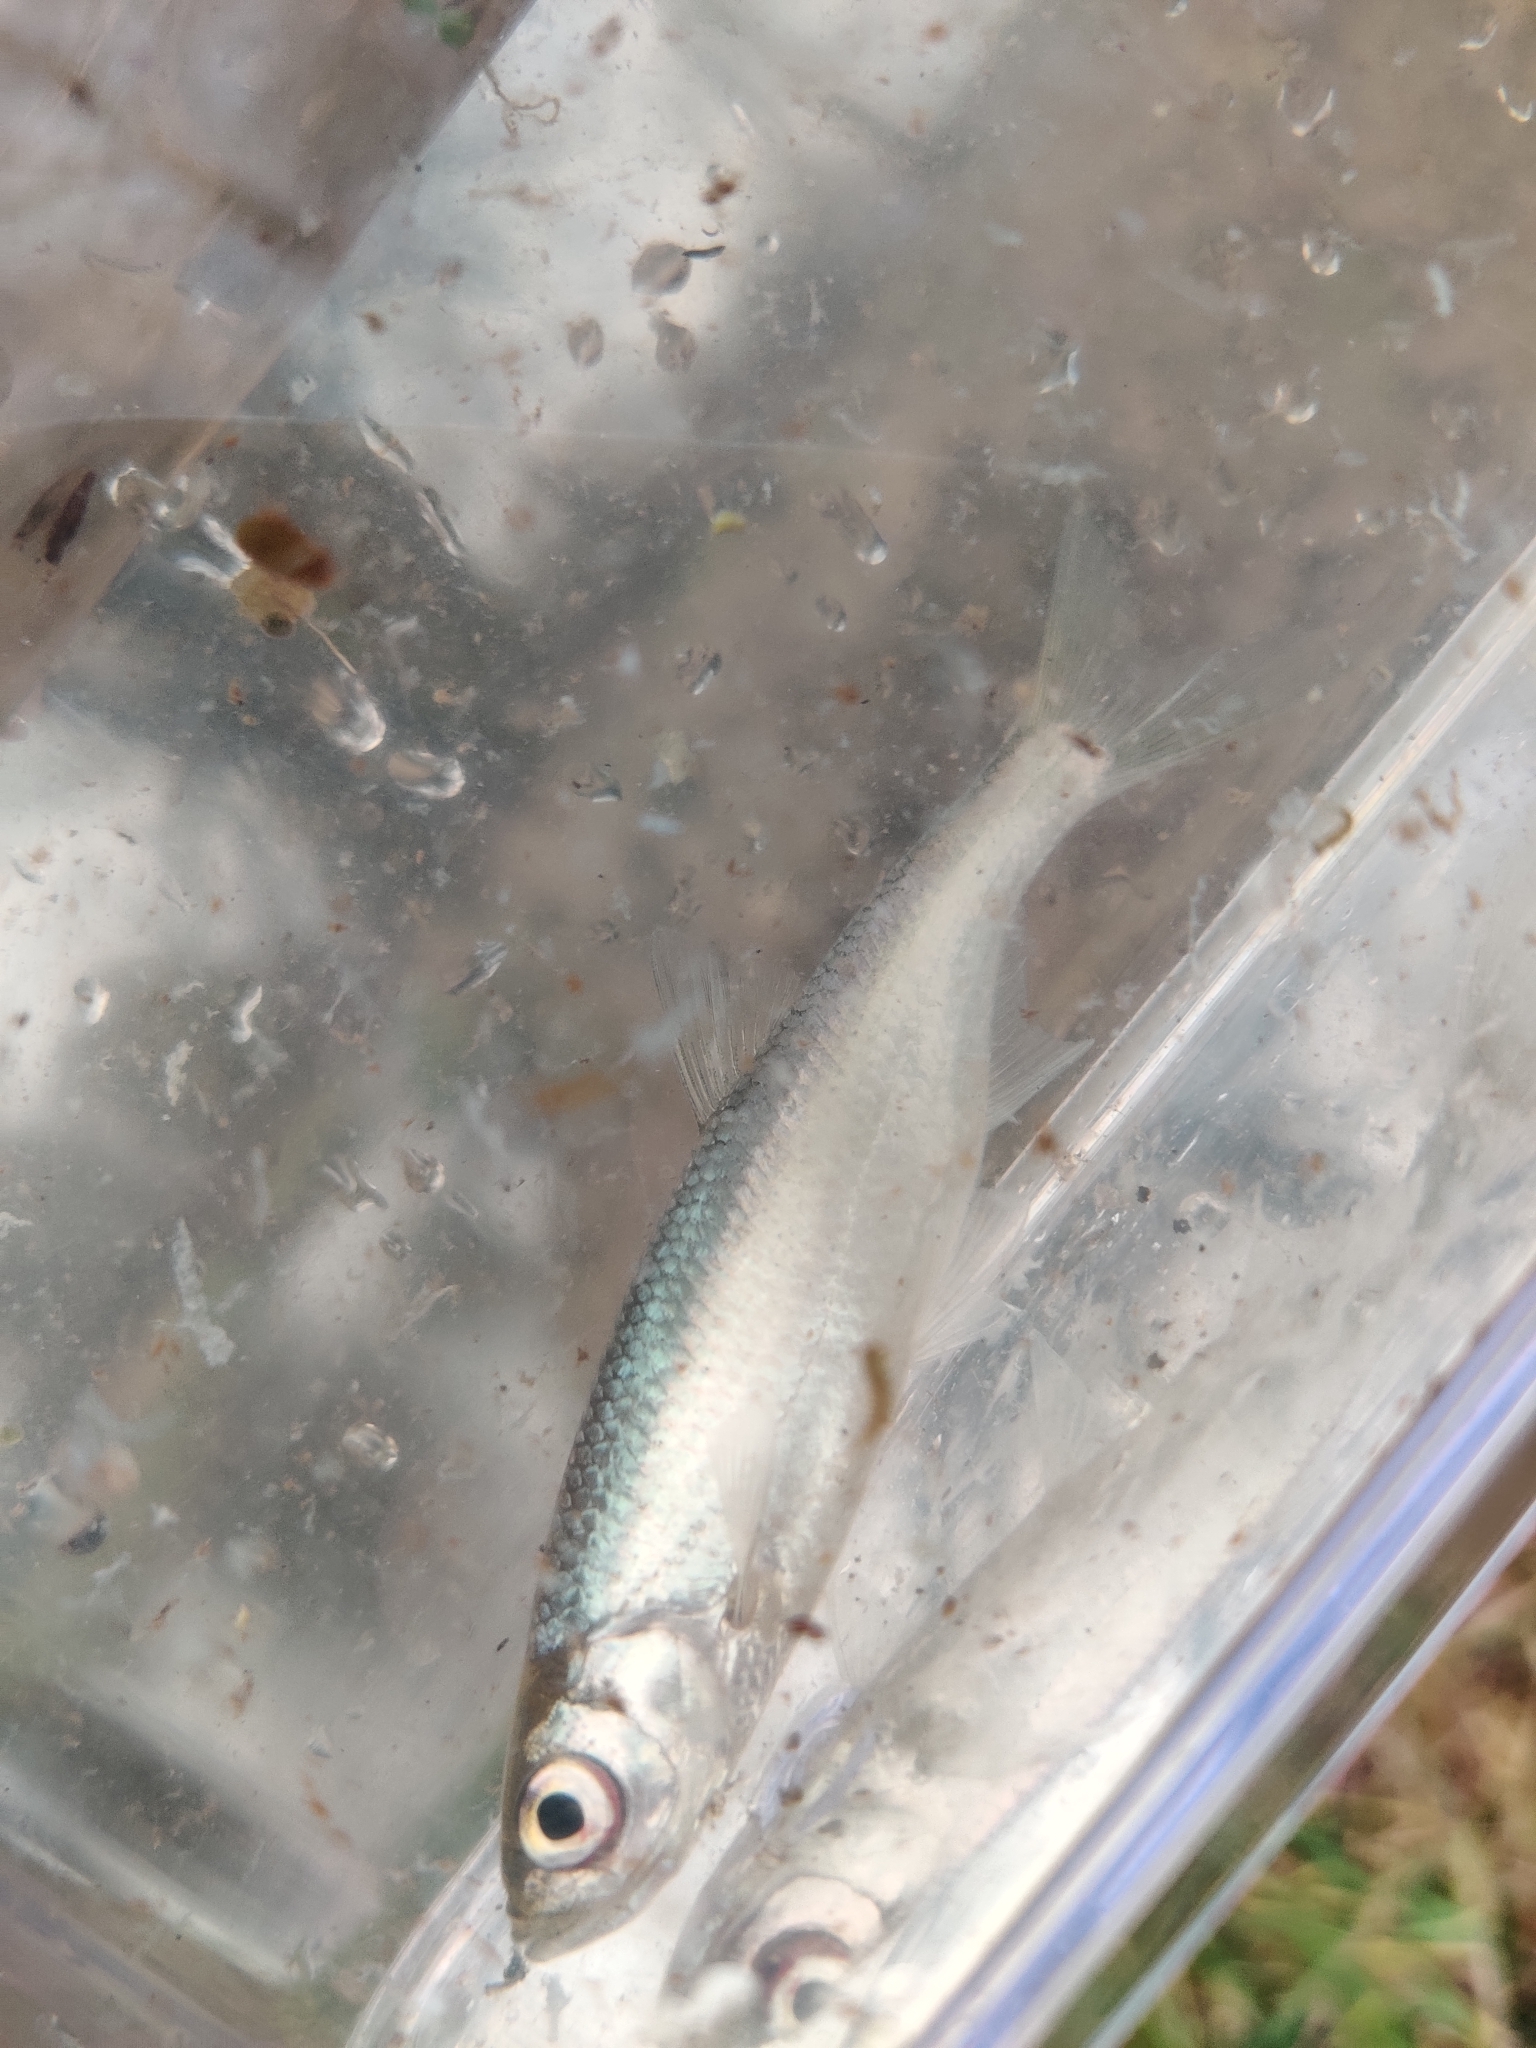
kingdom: Animalia
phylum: Chordata
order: Cypriniformes
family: Cyprinidae
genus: Alburnus
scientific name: Alburnus alburnus
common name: Bleak
